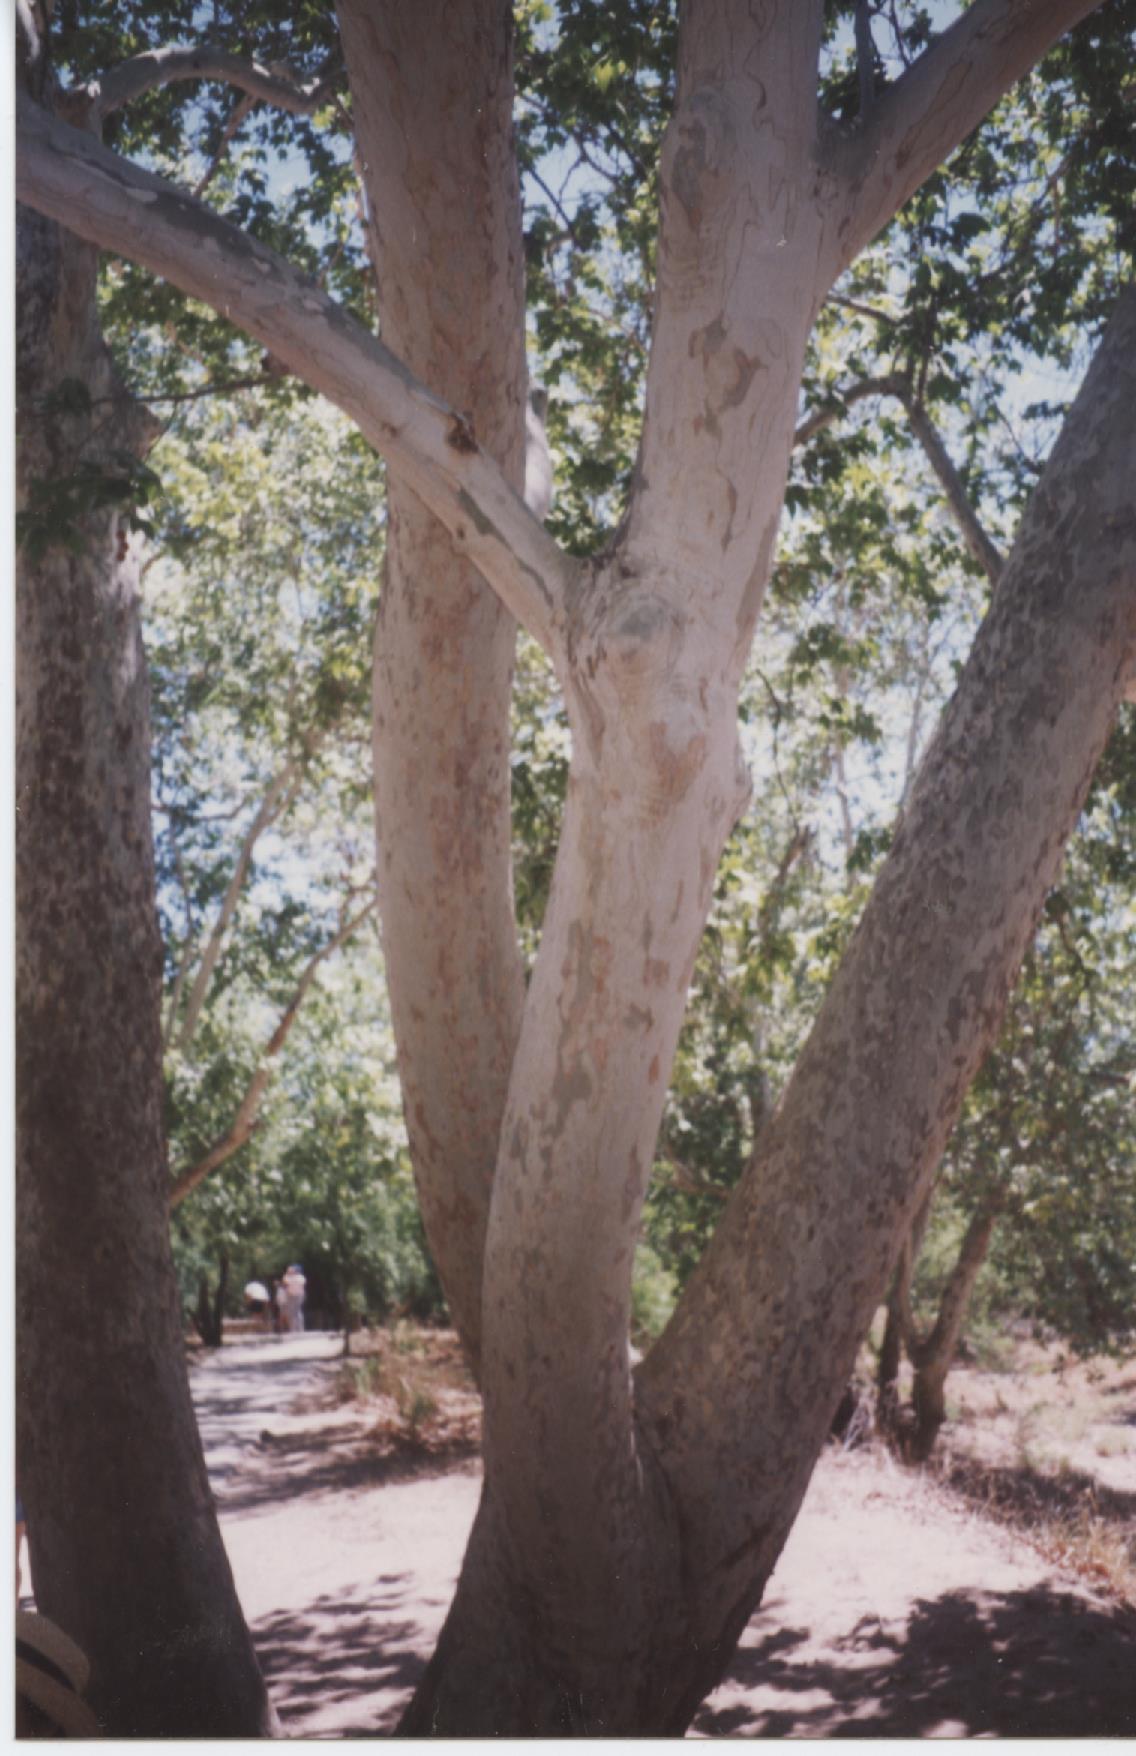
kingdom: Plantae
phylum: Tracheophyta
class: Magnoliopsida
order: Proteales
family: Platanaceae
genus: Platanus
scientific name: Platanus wrightii
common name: Arizona sycamore
